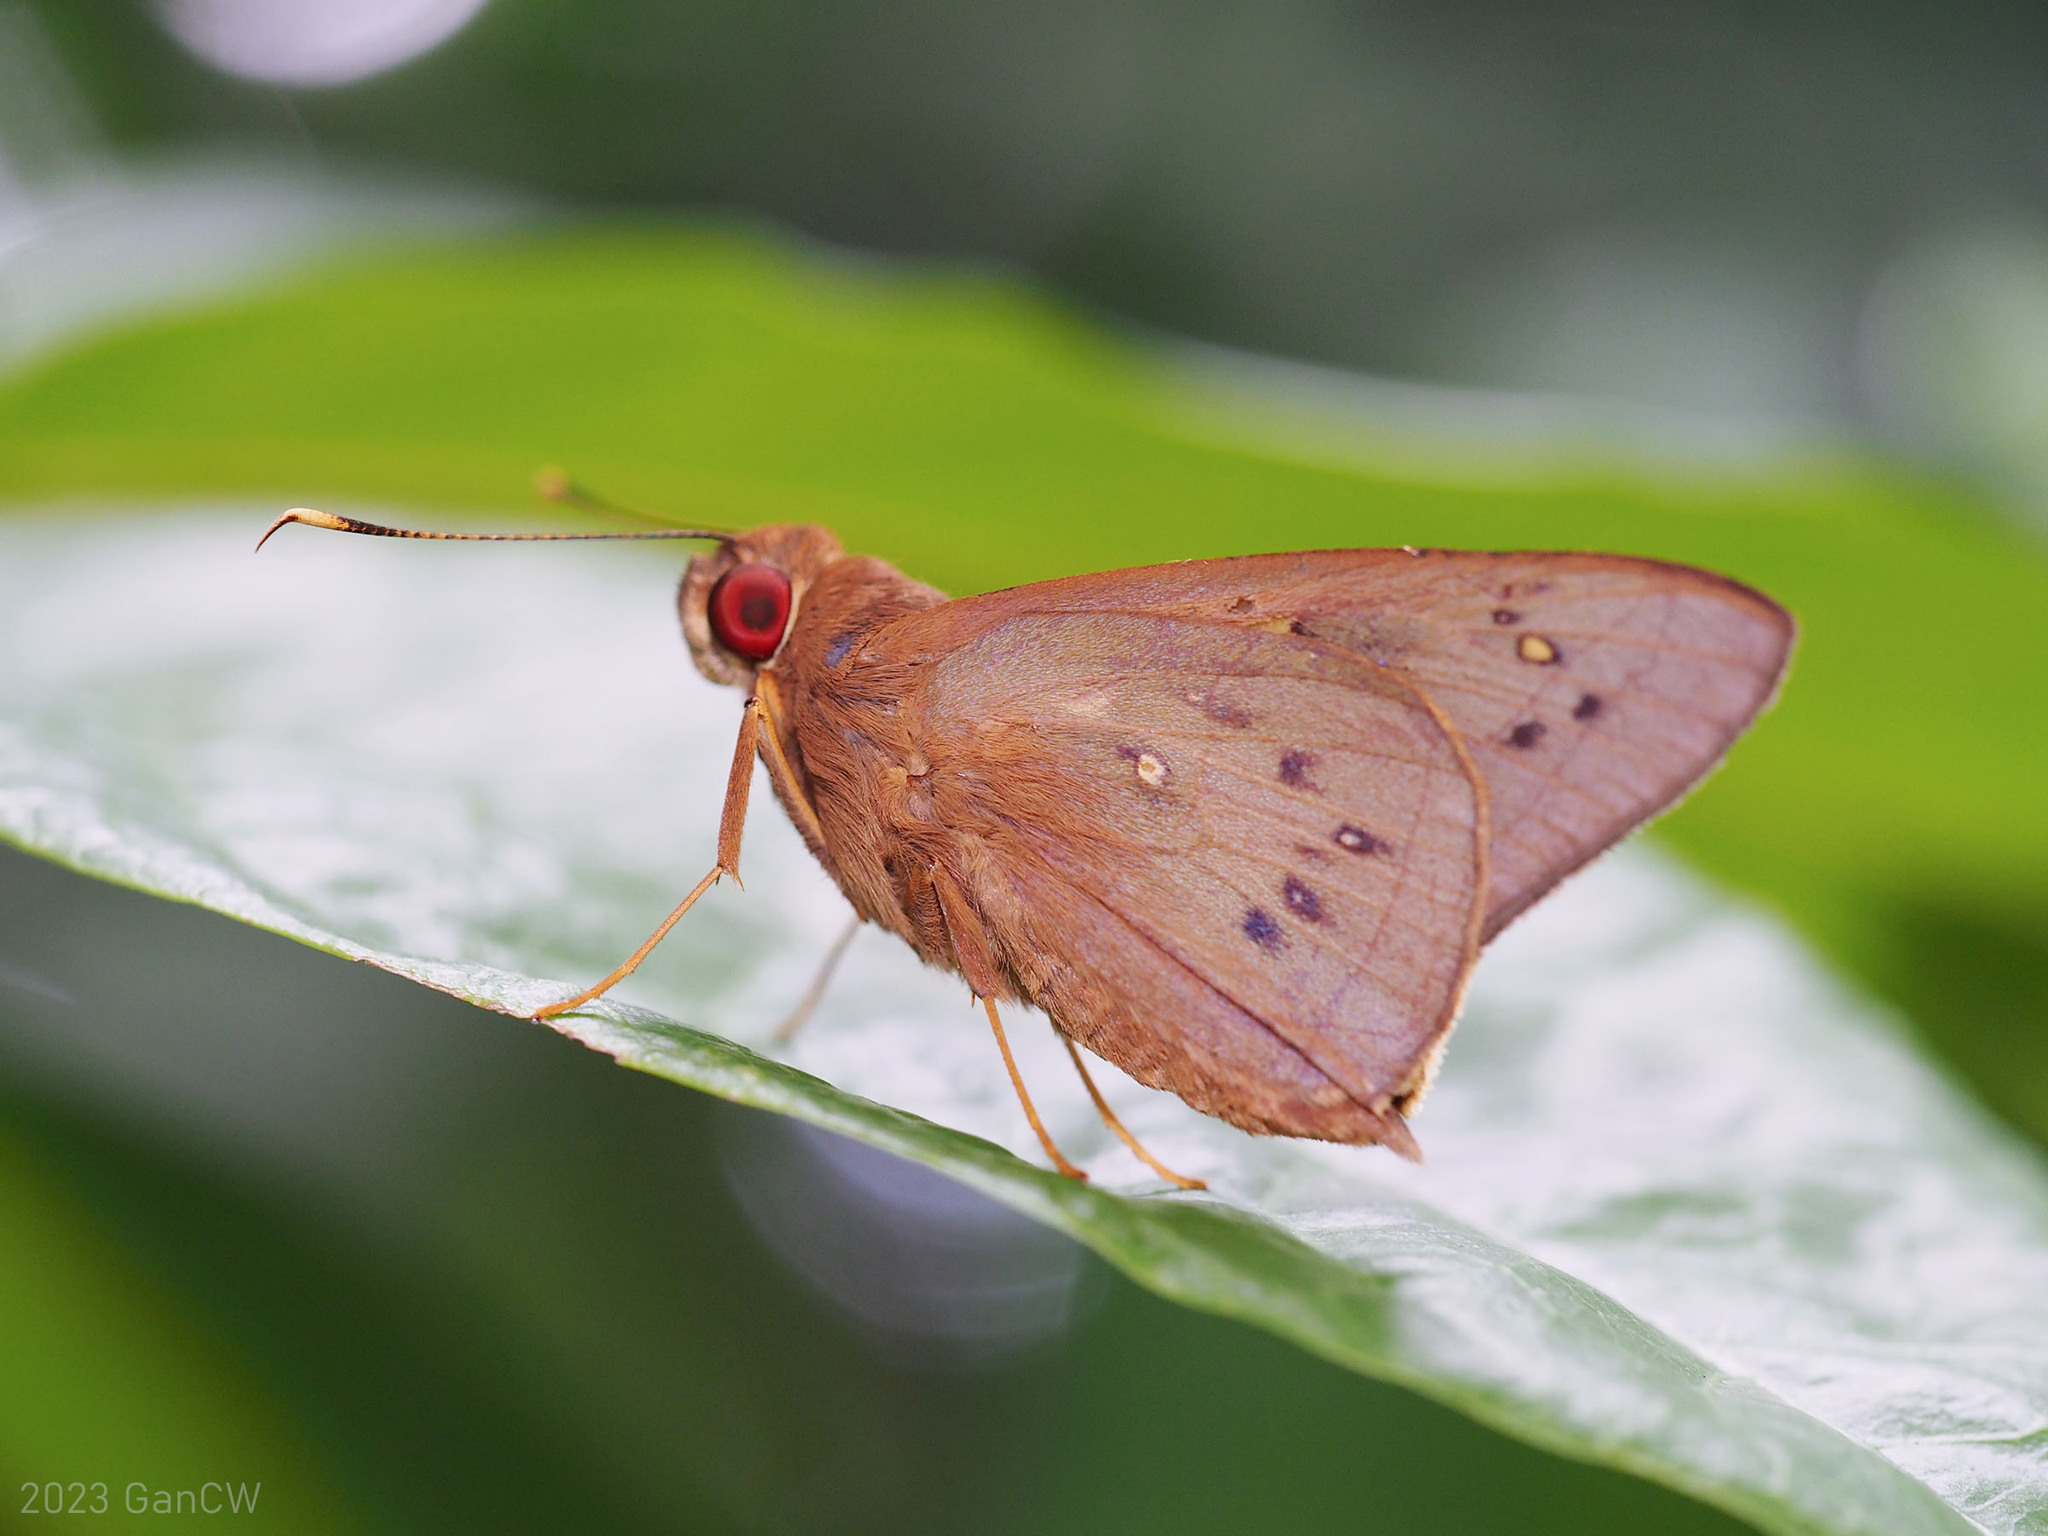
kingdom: Animalia
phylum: Arthropoda
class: Insecta
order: Lepidoptera
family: Hesperiidae
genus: Hidari
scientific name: Hidari irava
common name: Coconut skipper
